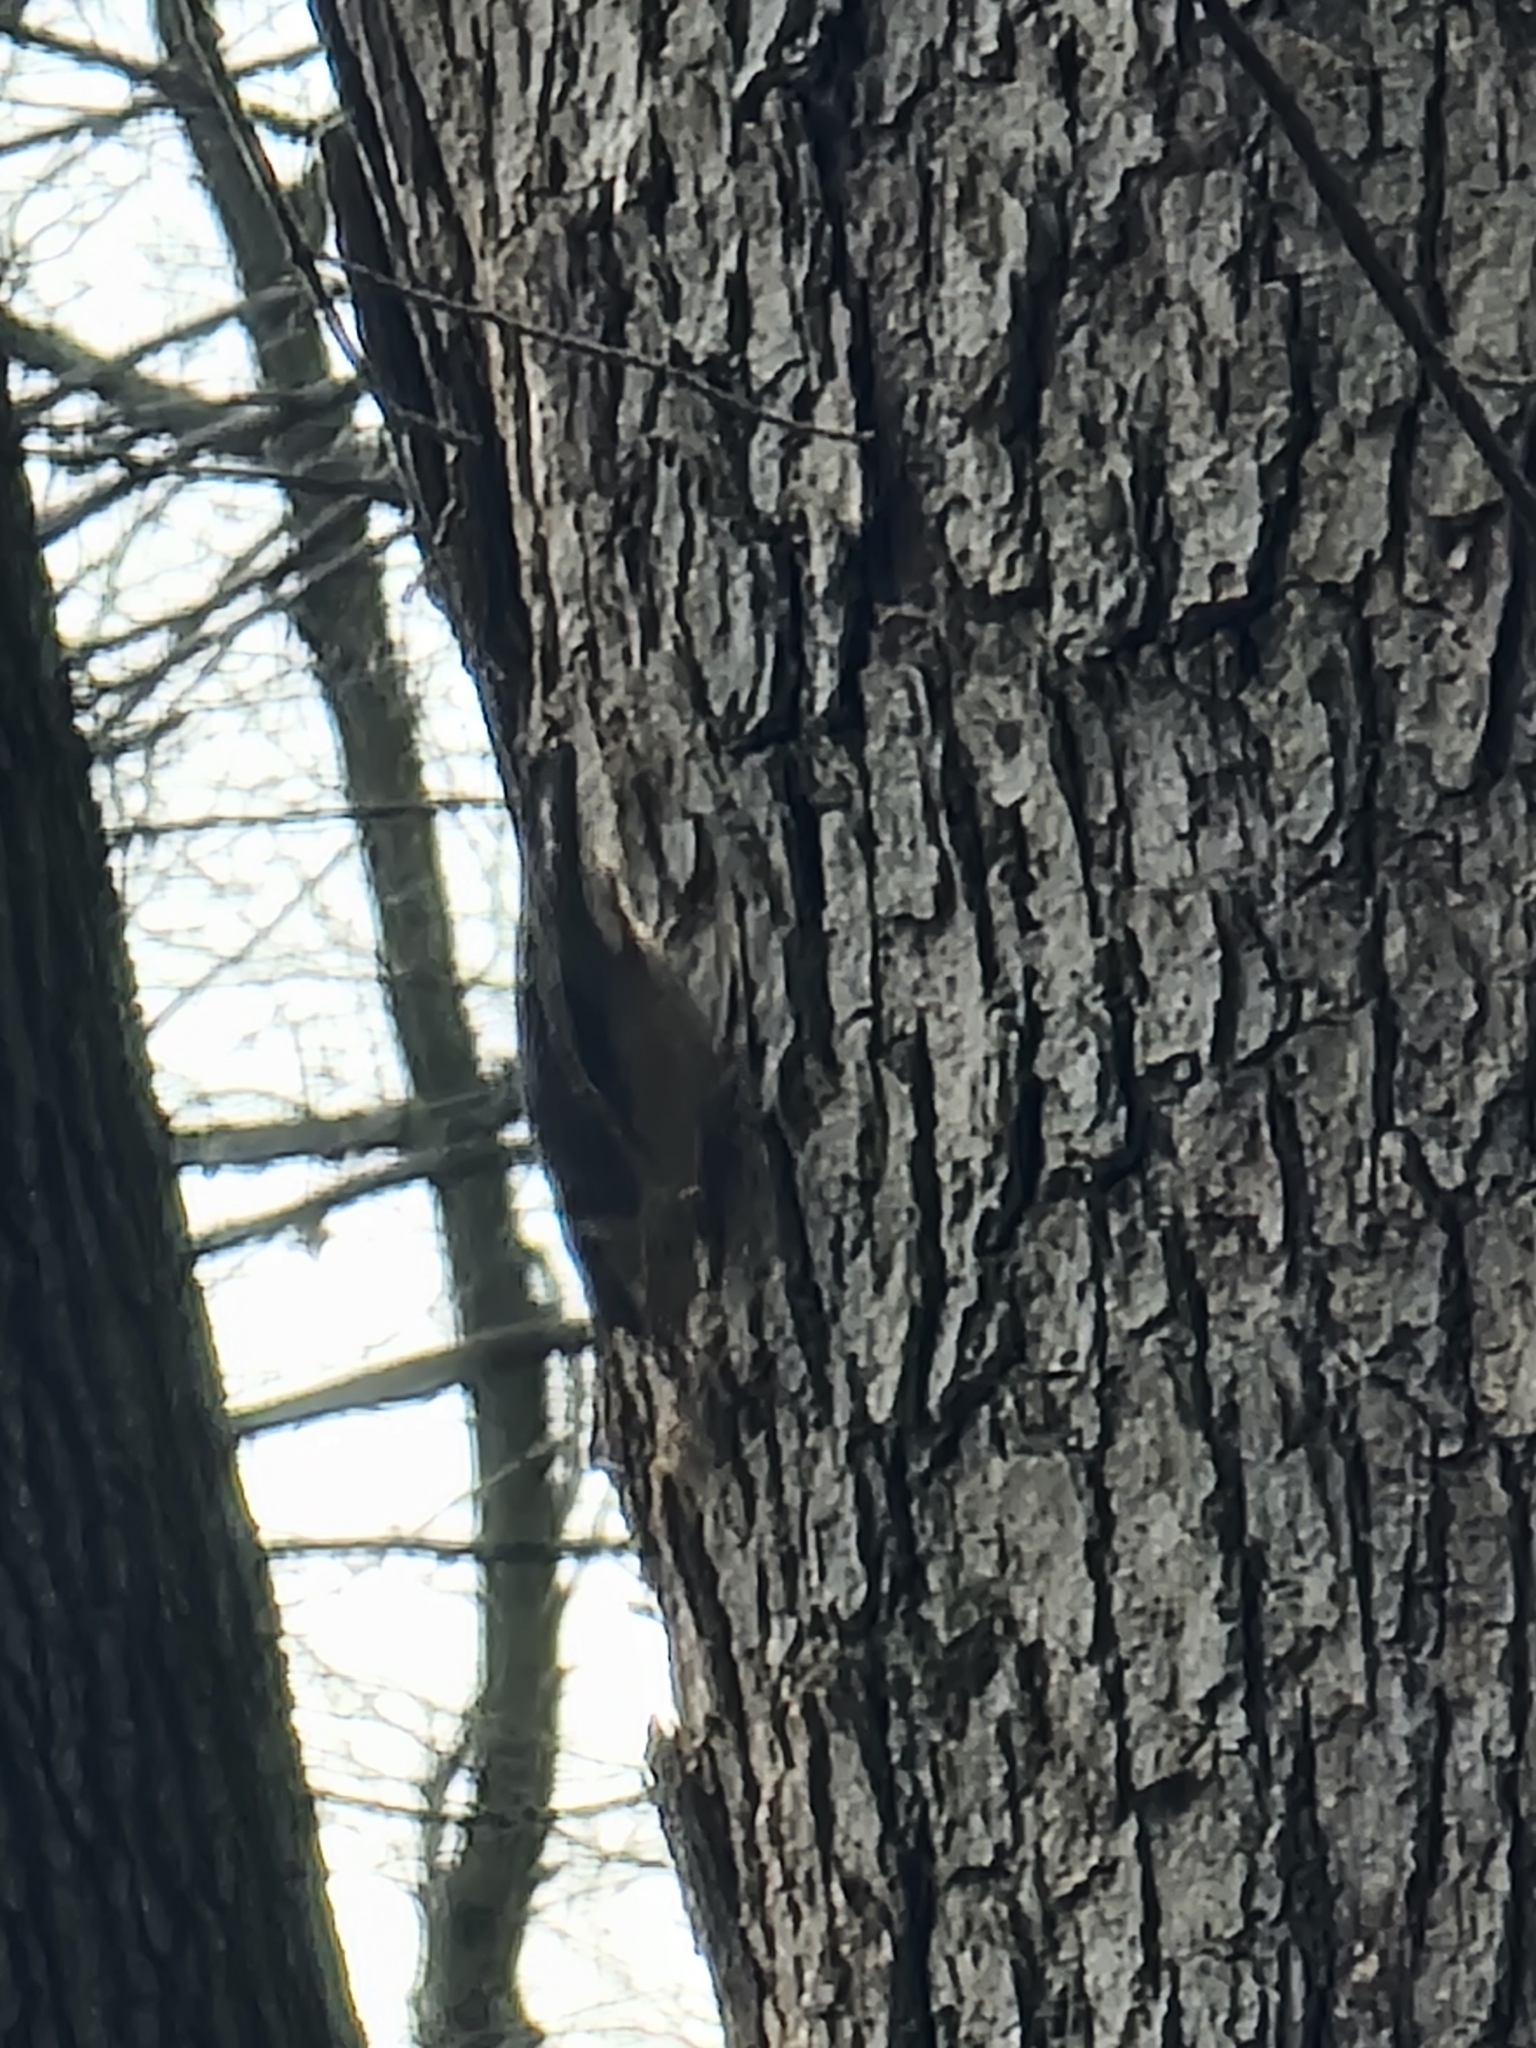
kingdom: Animalia
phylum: Chordata
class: Aves
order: Passeriformes
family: Sittidae
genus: Sitta
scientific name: Sitta carolinensis
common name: White-breasted nuthatch
